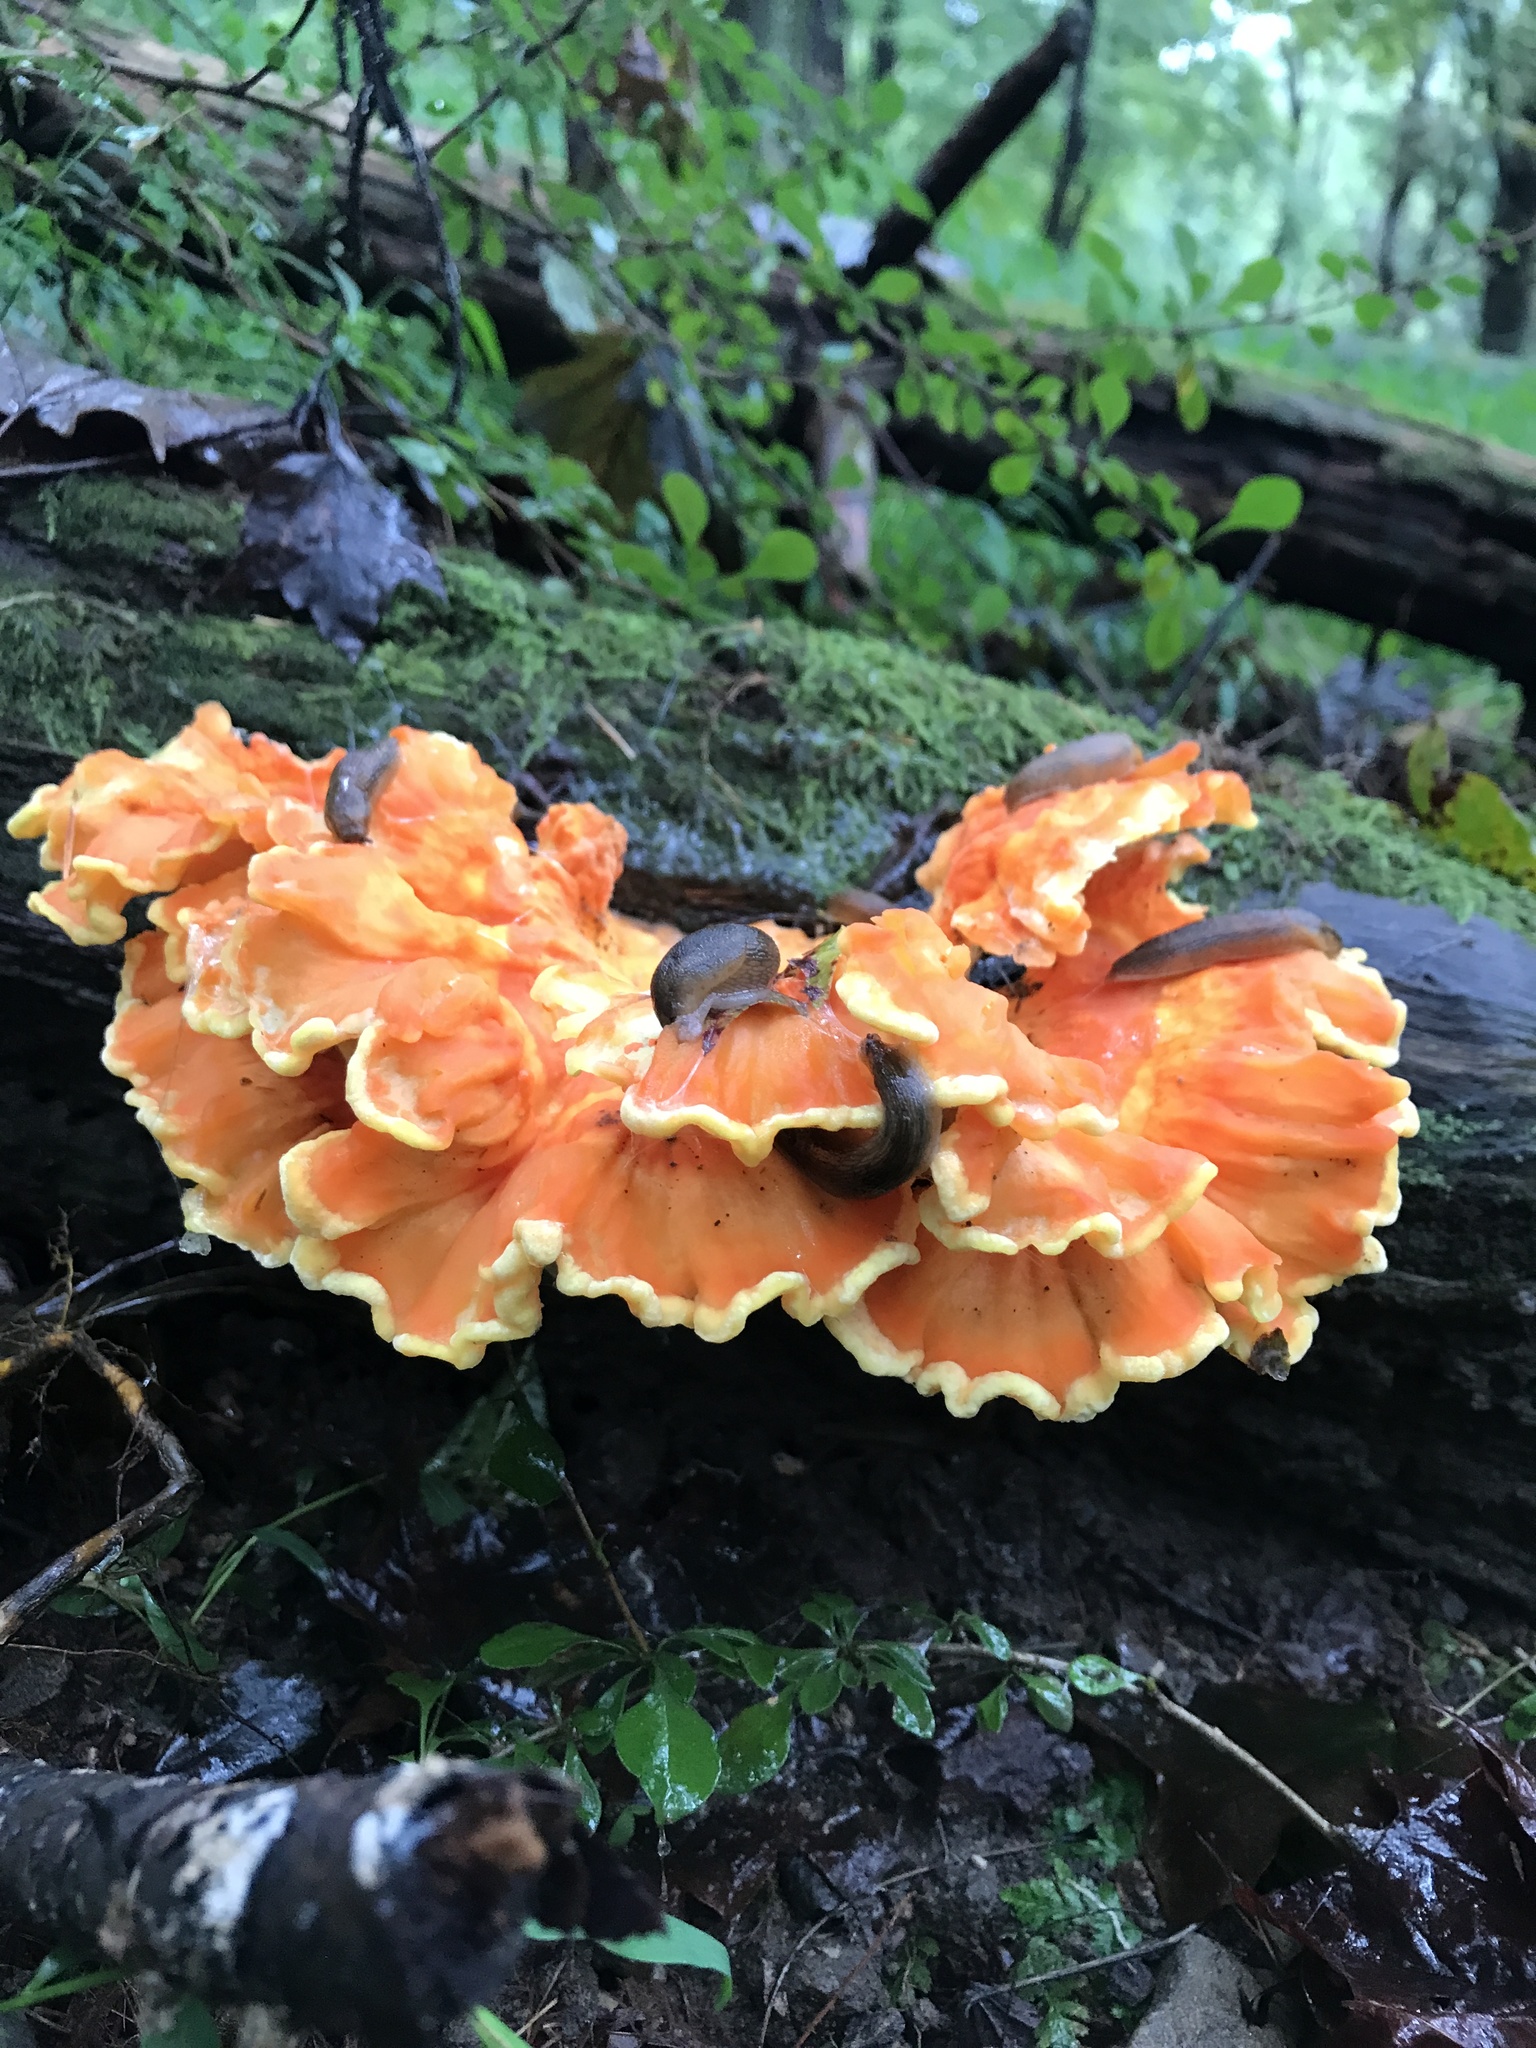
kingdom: Fungi
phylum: Basidiomycota
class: Agaricomycetes
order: Polyporales
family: Laetiporaceae
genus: Laetiporus
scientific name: Laetiporus sulphureus
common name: Chicken of the woods
